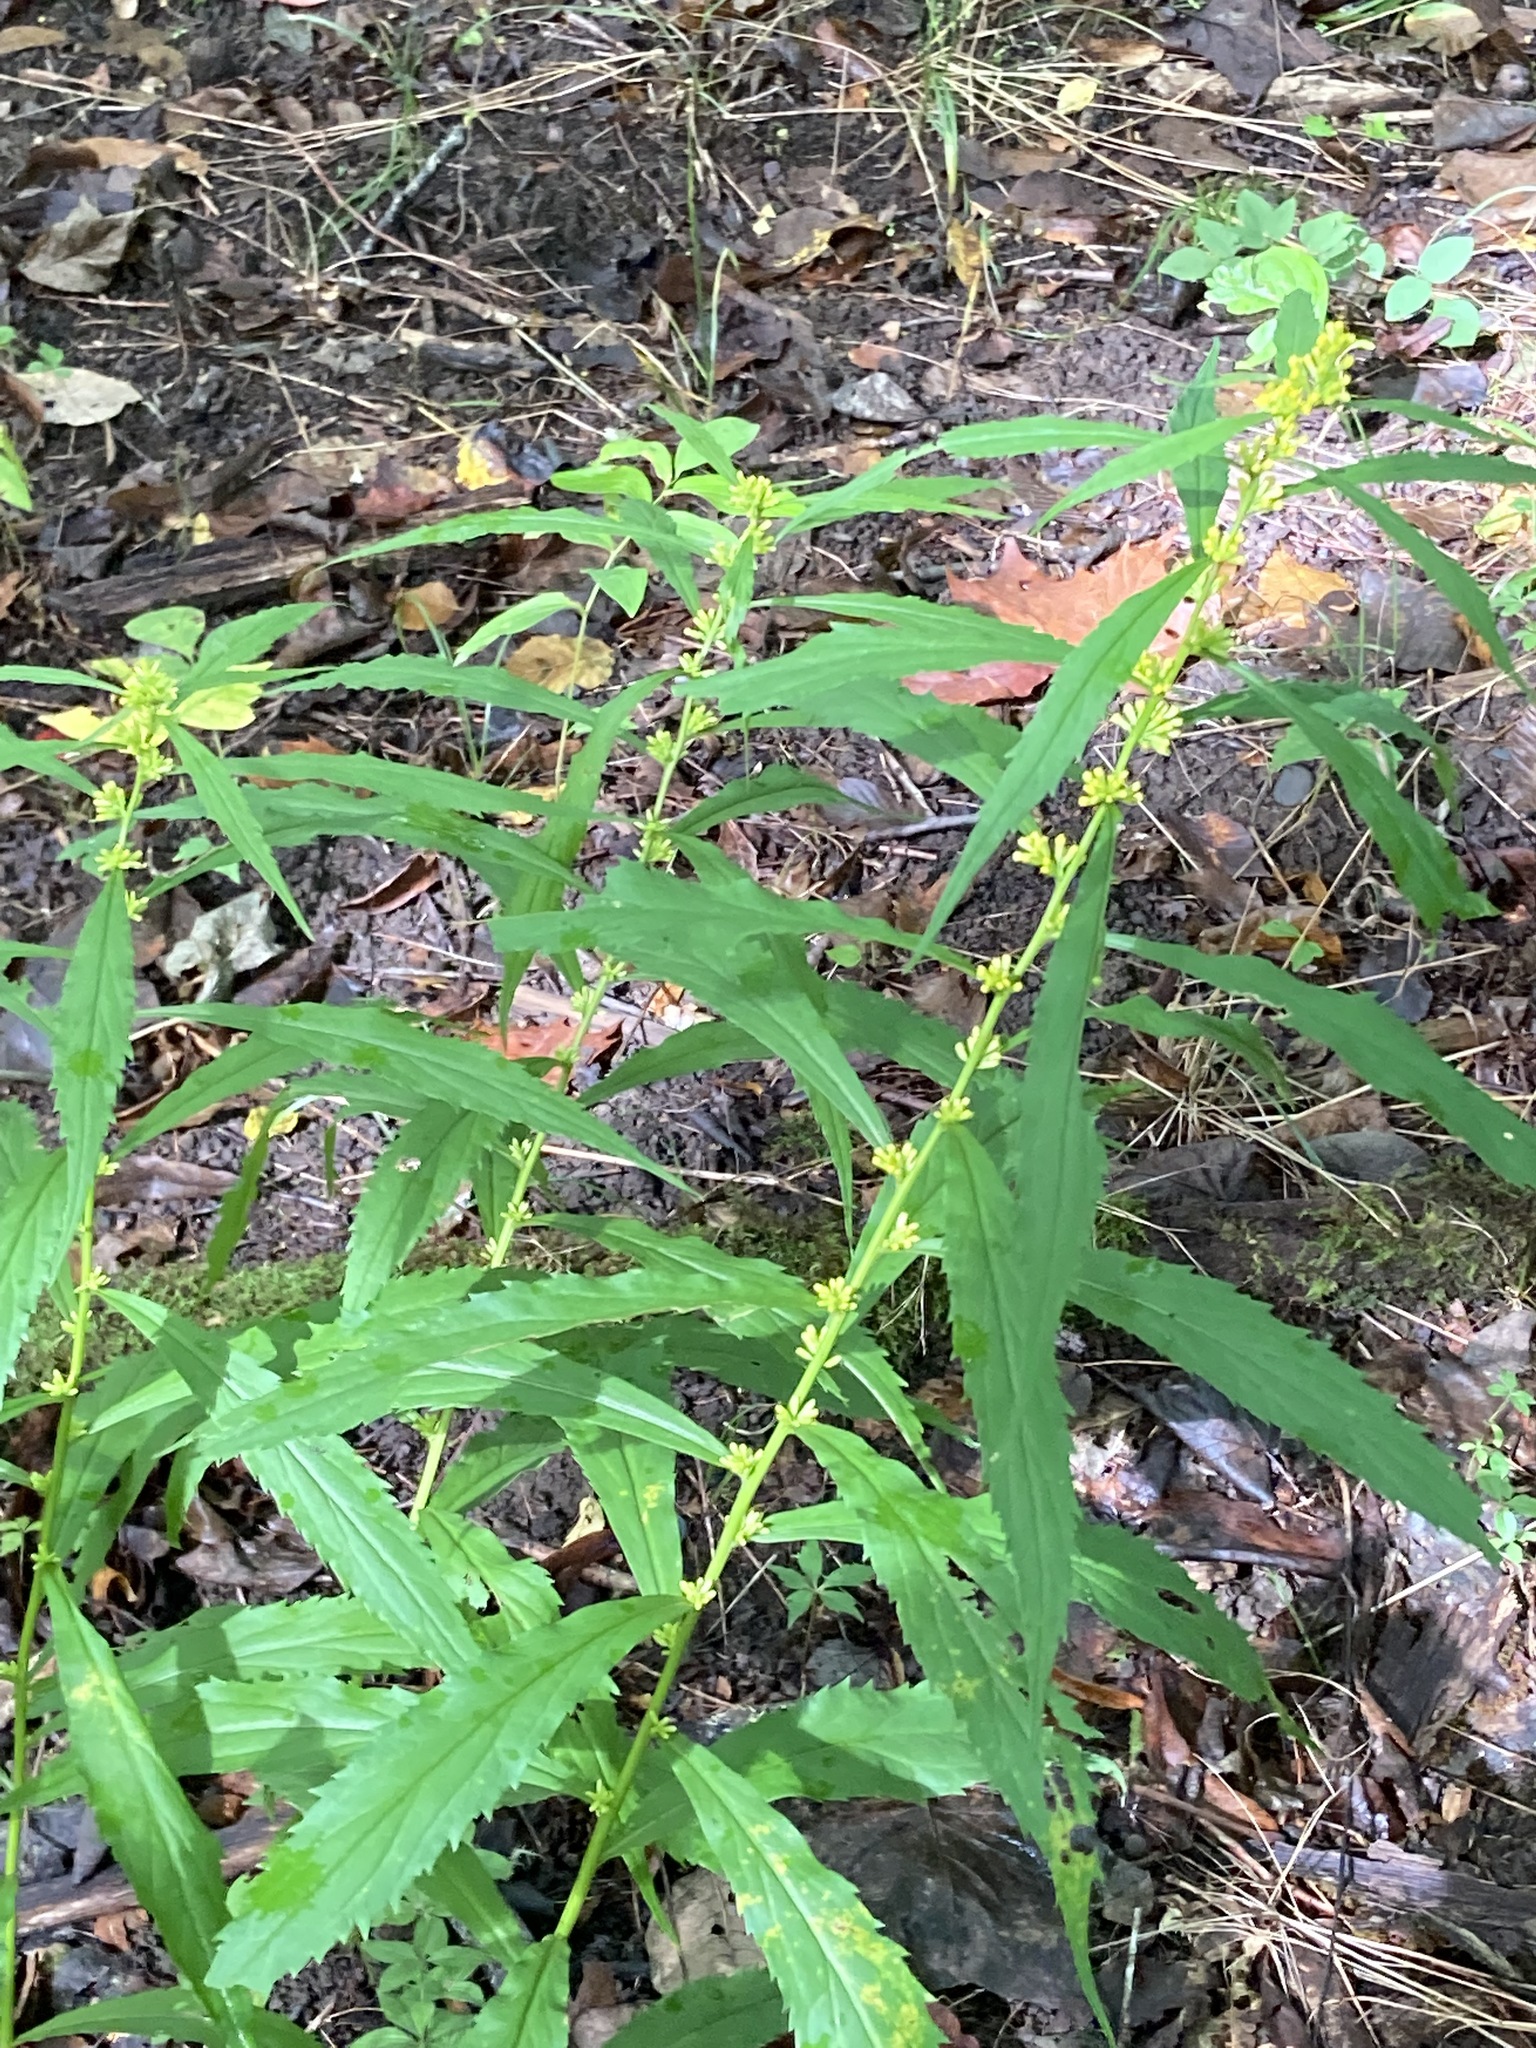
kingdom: Plantae
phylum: Tracheophyta
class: Magnoliopsida
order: Asterales
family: Asteraceae
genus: Solidago
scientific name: Solidago caesia
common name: Woodland goldenrod
